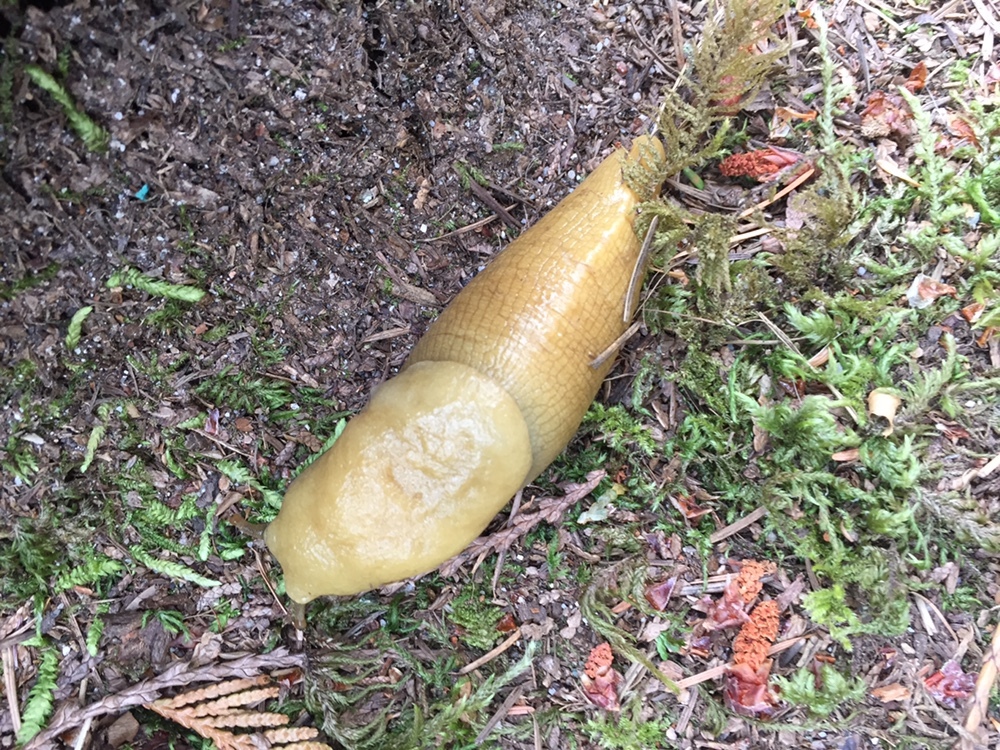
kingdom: Animalia
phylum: Mollusca
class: Gastropoda
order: Stylommatophora
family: Ariolimacidae
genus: Ariolimax
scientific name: Ariolimax columbianus
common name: Pacific banana slug
